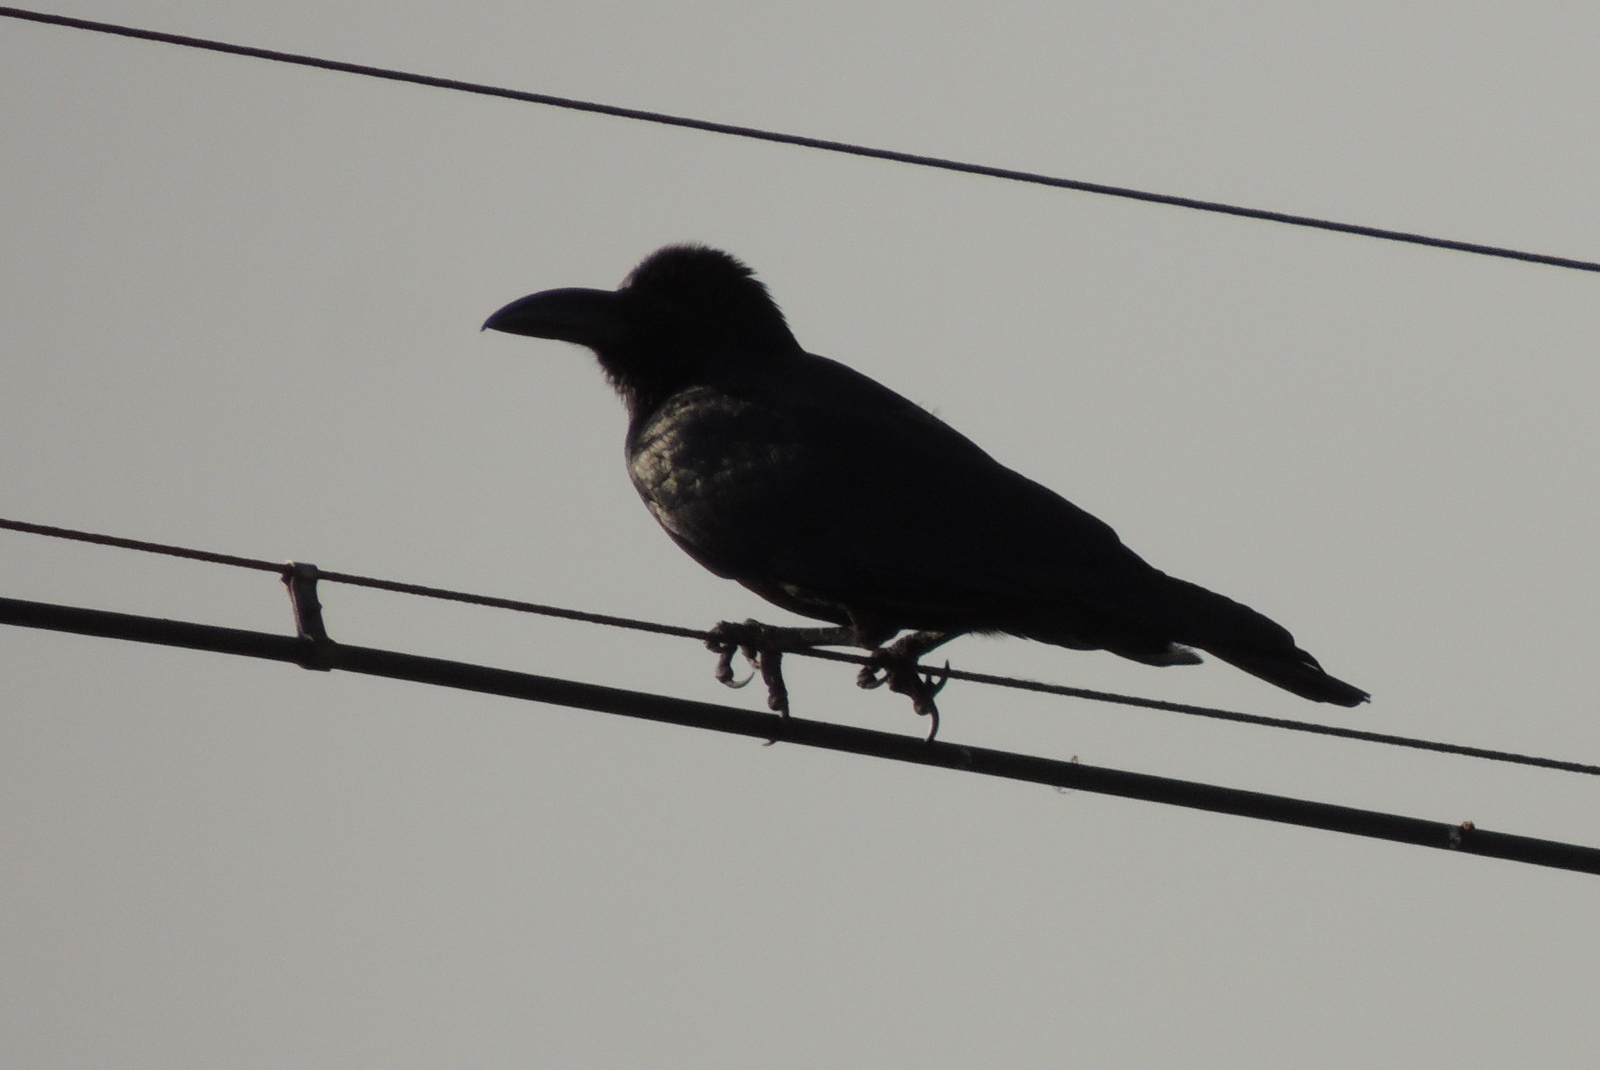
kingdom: Animalia
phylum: Chordata
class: Aves
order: Passeriformes
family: Corvidae
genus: Corvus
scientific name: Corvus macrorhynchos
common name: Large-billed crow
